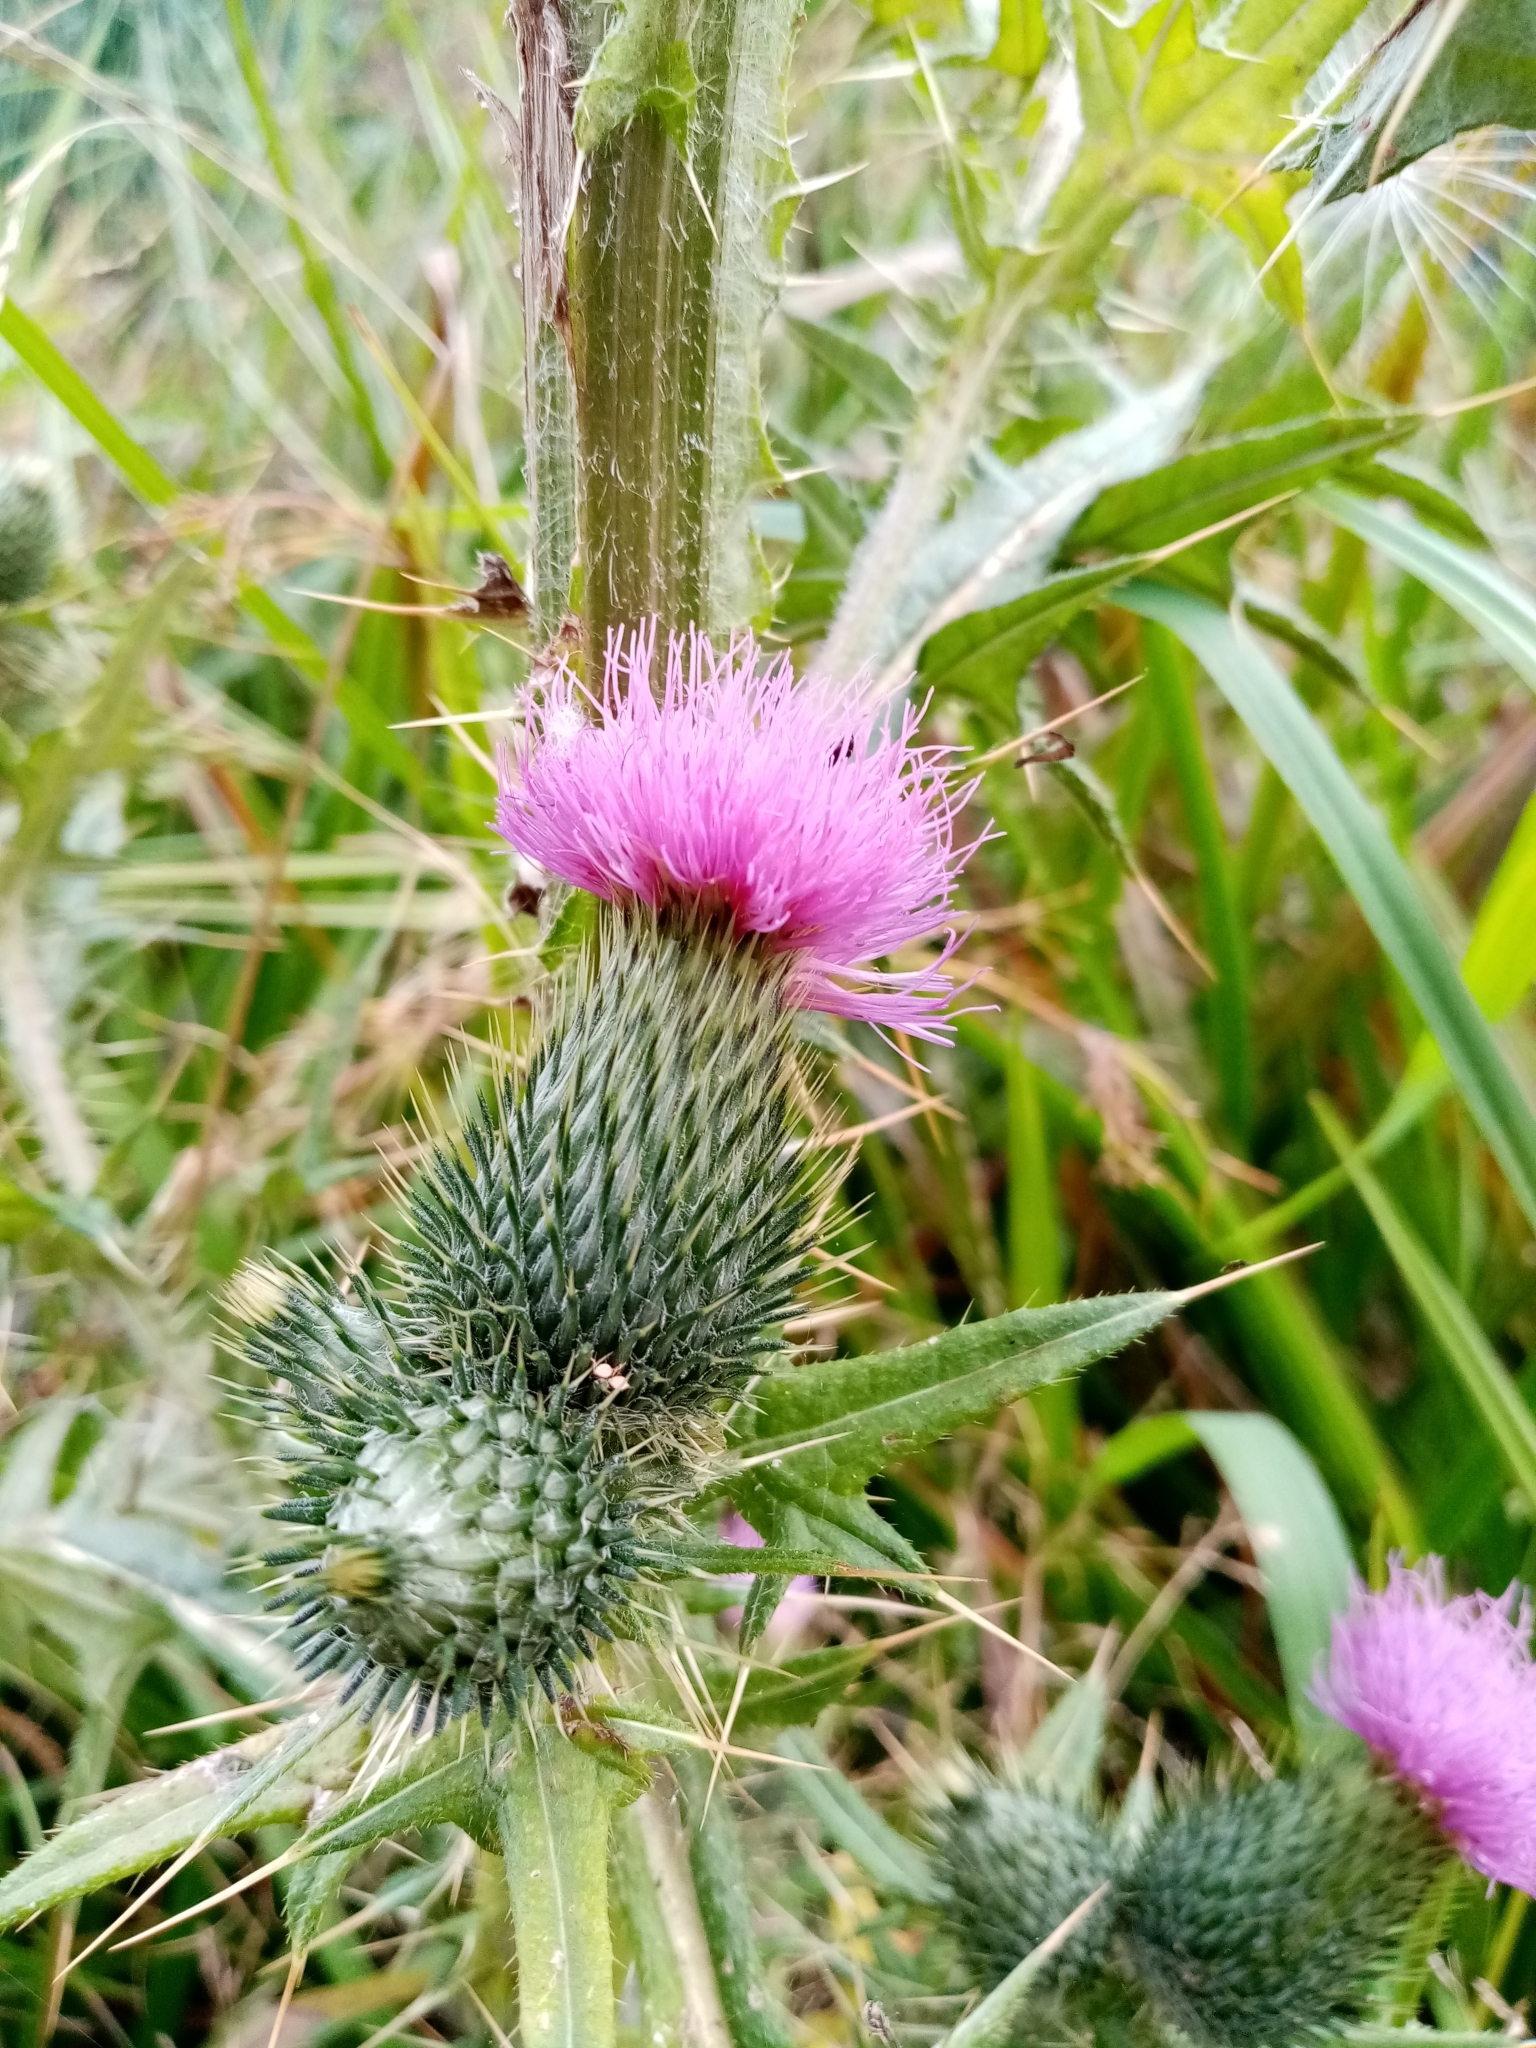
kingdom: Plantae
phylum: Tracheophyta
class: Magnoliopsida
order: Asterales
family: Asteraceae
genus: Cirsium
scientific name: Cirsium vulgare
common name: Bull thistle
